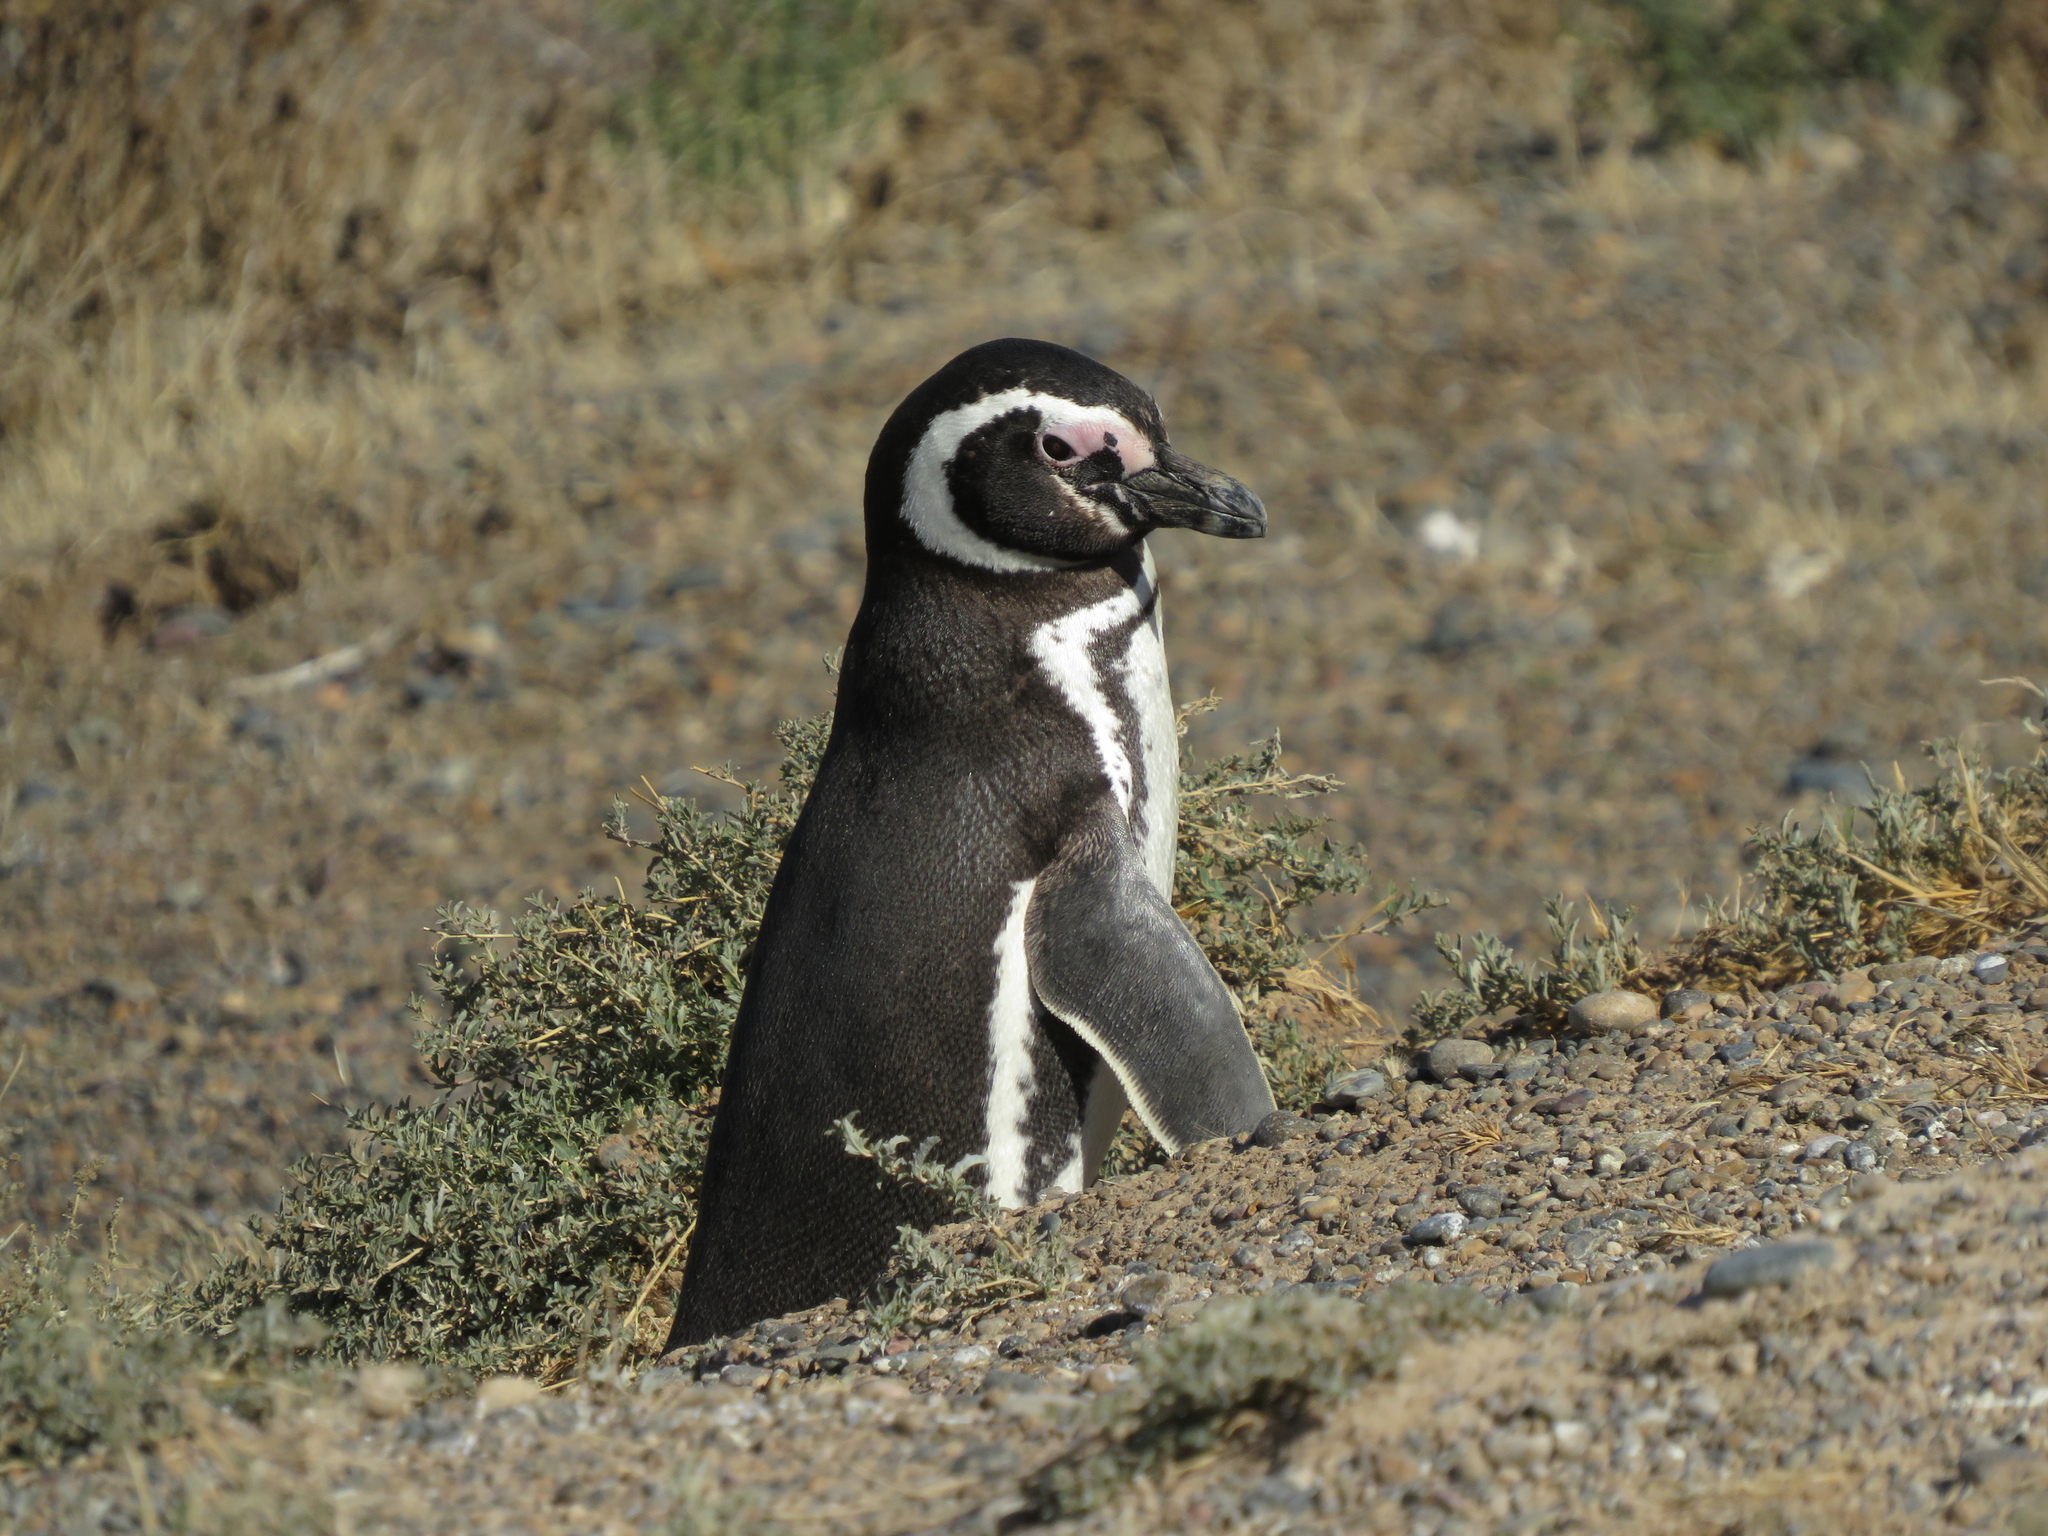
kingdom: Animalia
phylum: Chordata
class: Aves
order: Sphenisciformes
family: Spheniscidae
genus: Spheniscus
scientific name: Spheniscus magellanicus
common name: Magellanic penguin
